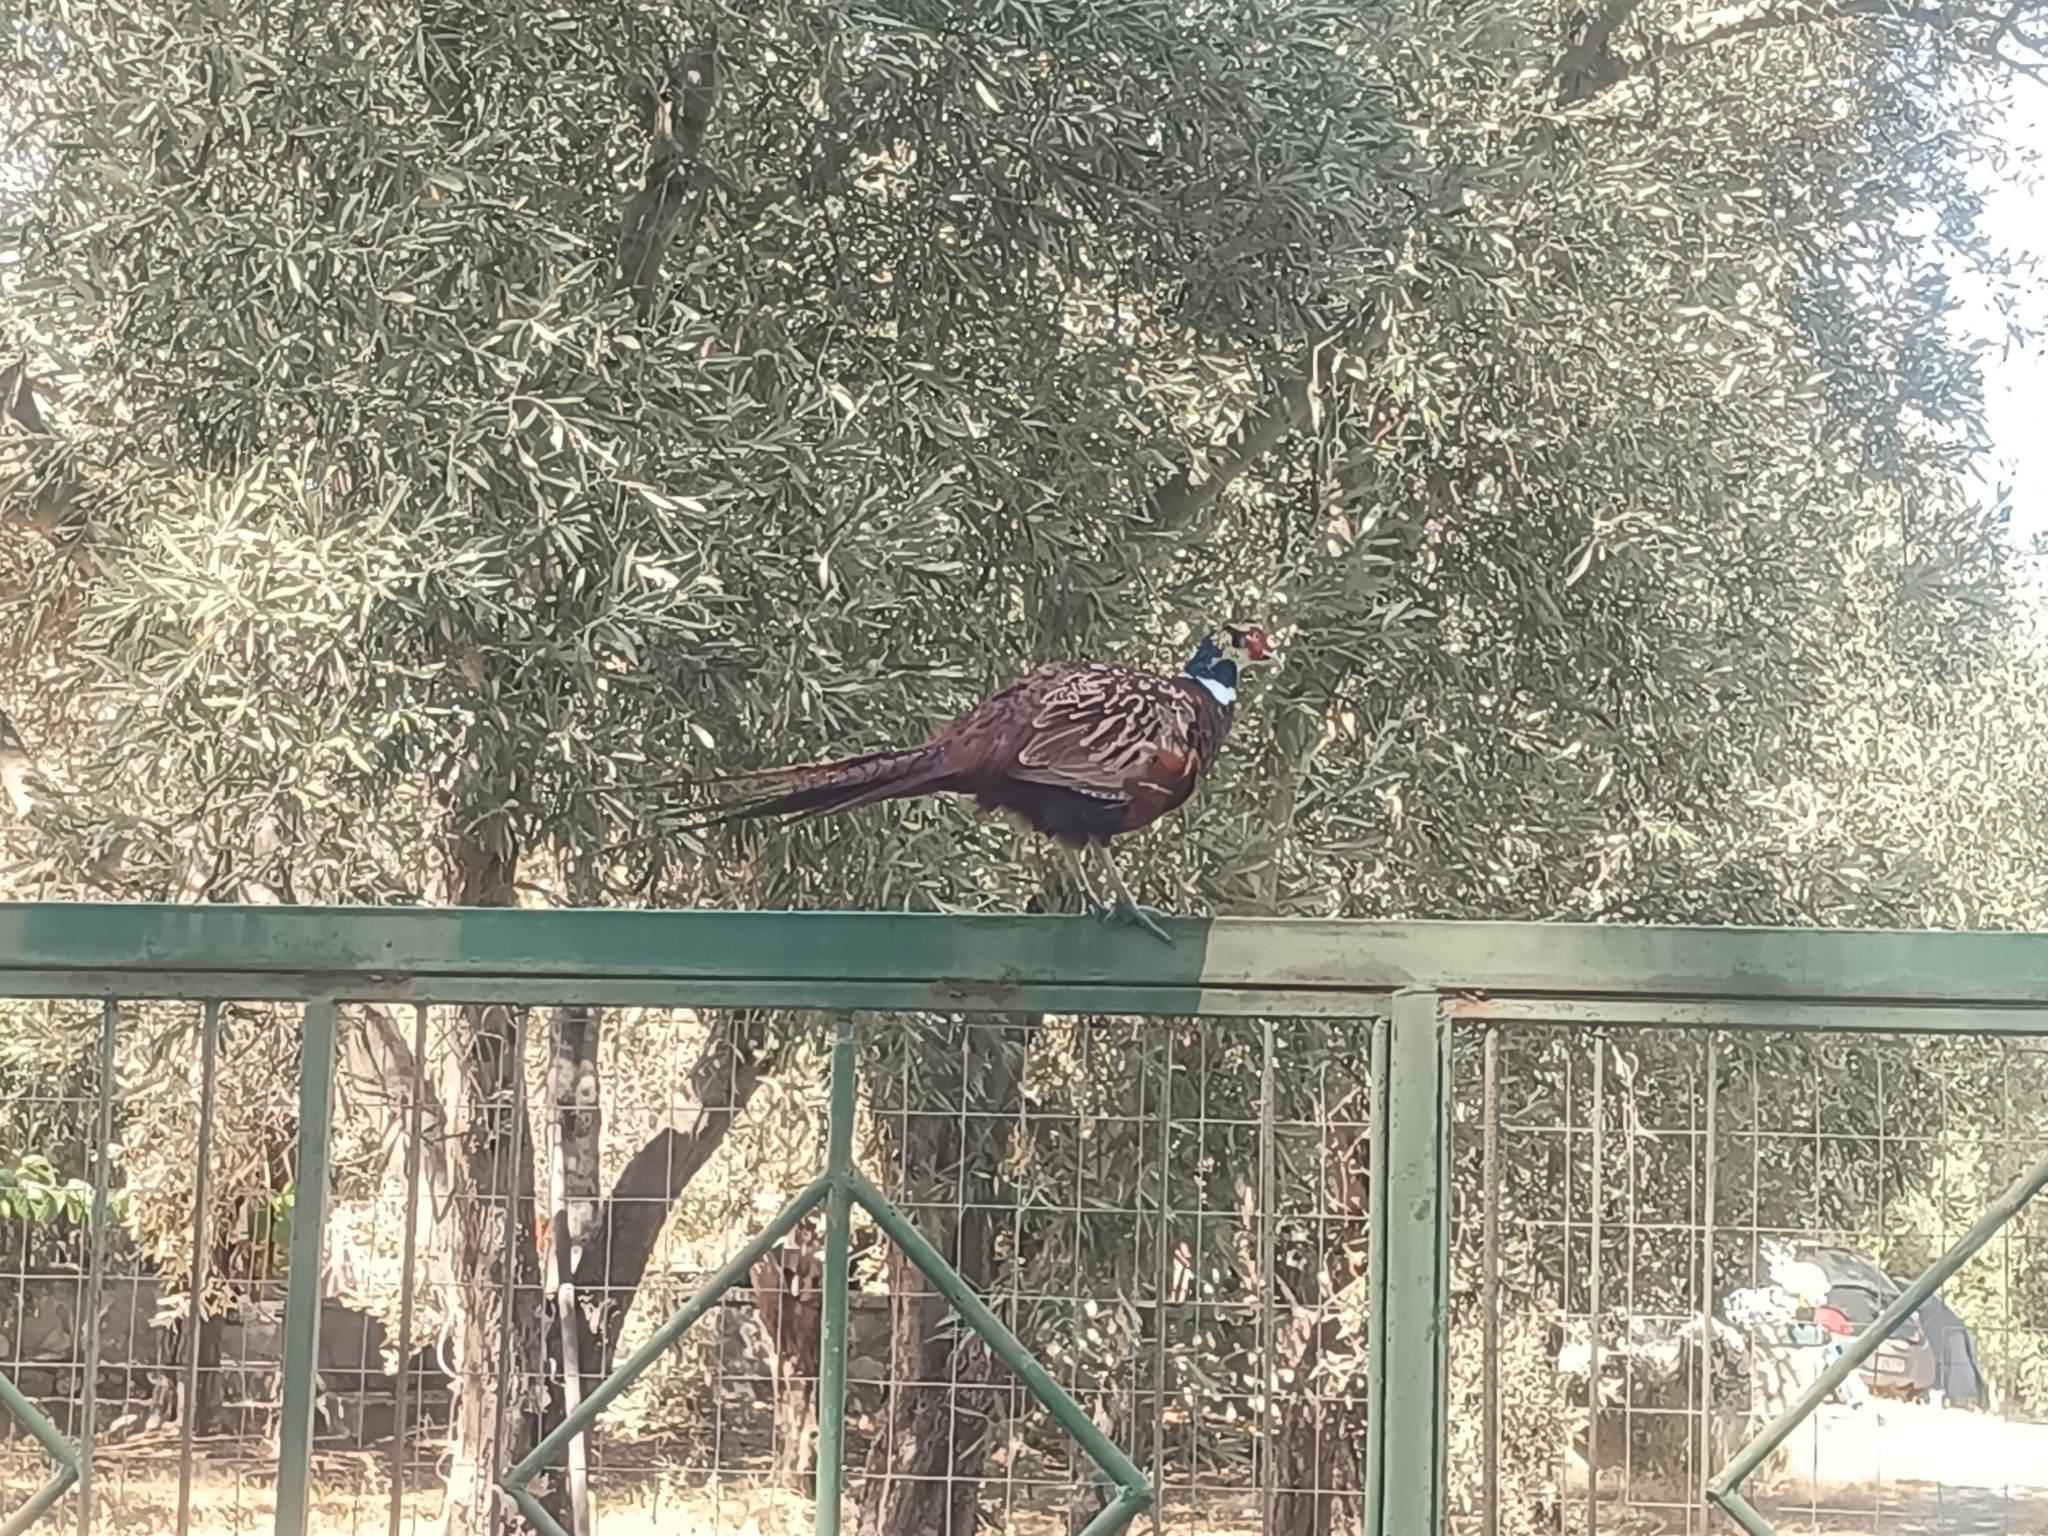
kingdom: Animalia
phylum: Chordata
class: Aves
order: Galliformes
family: Phasianidae
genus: Phasianus
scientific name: Phasianus colchicus
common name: Common pheasant
